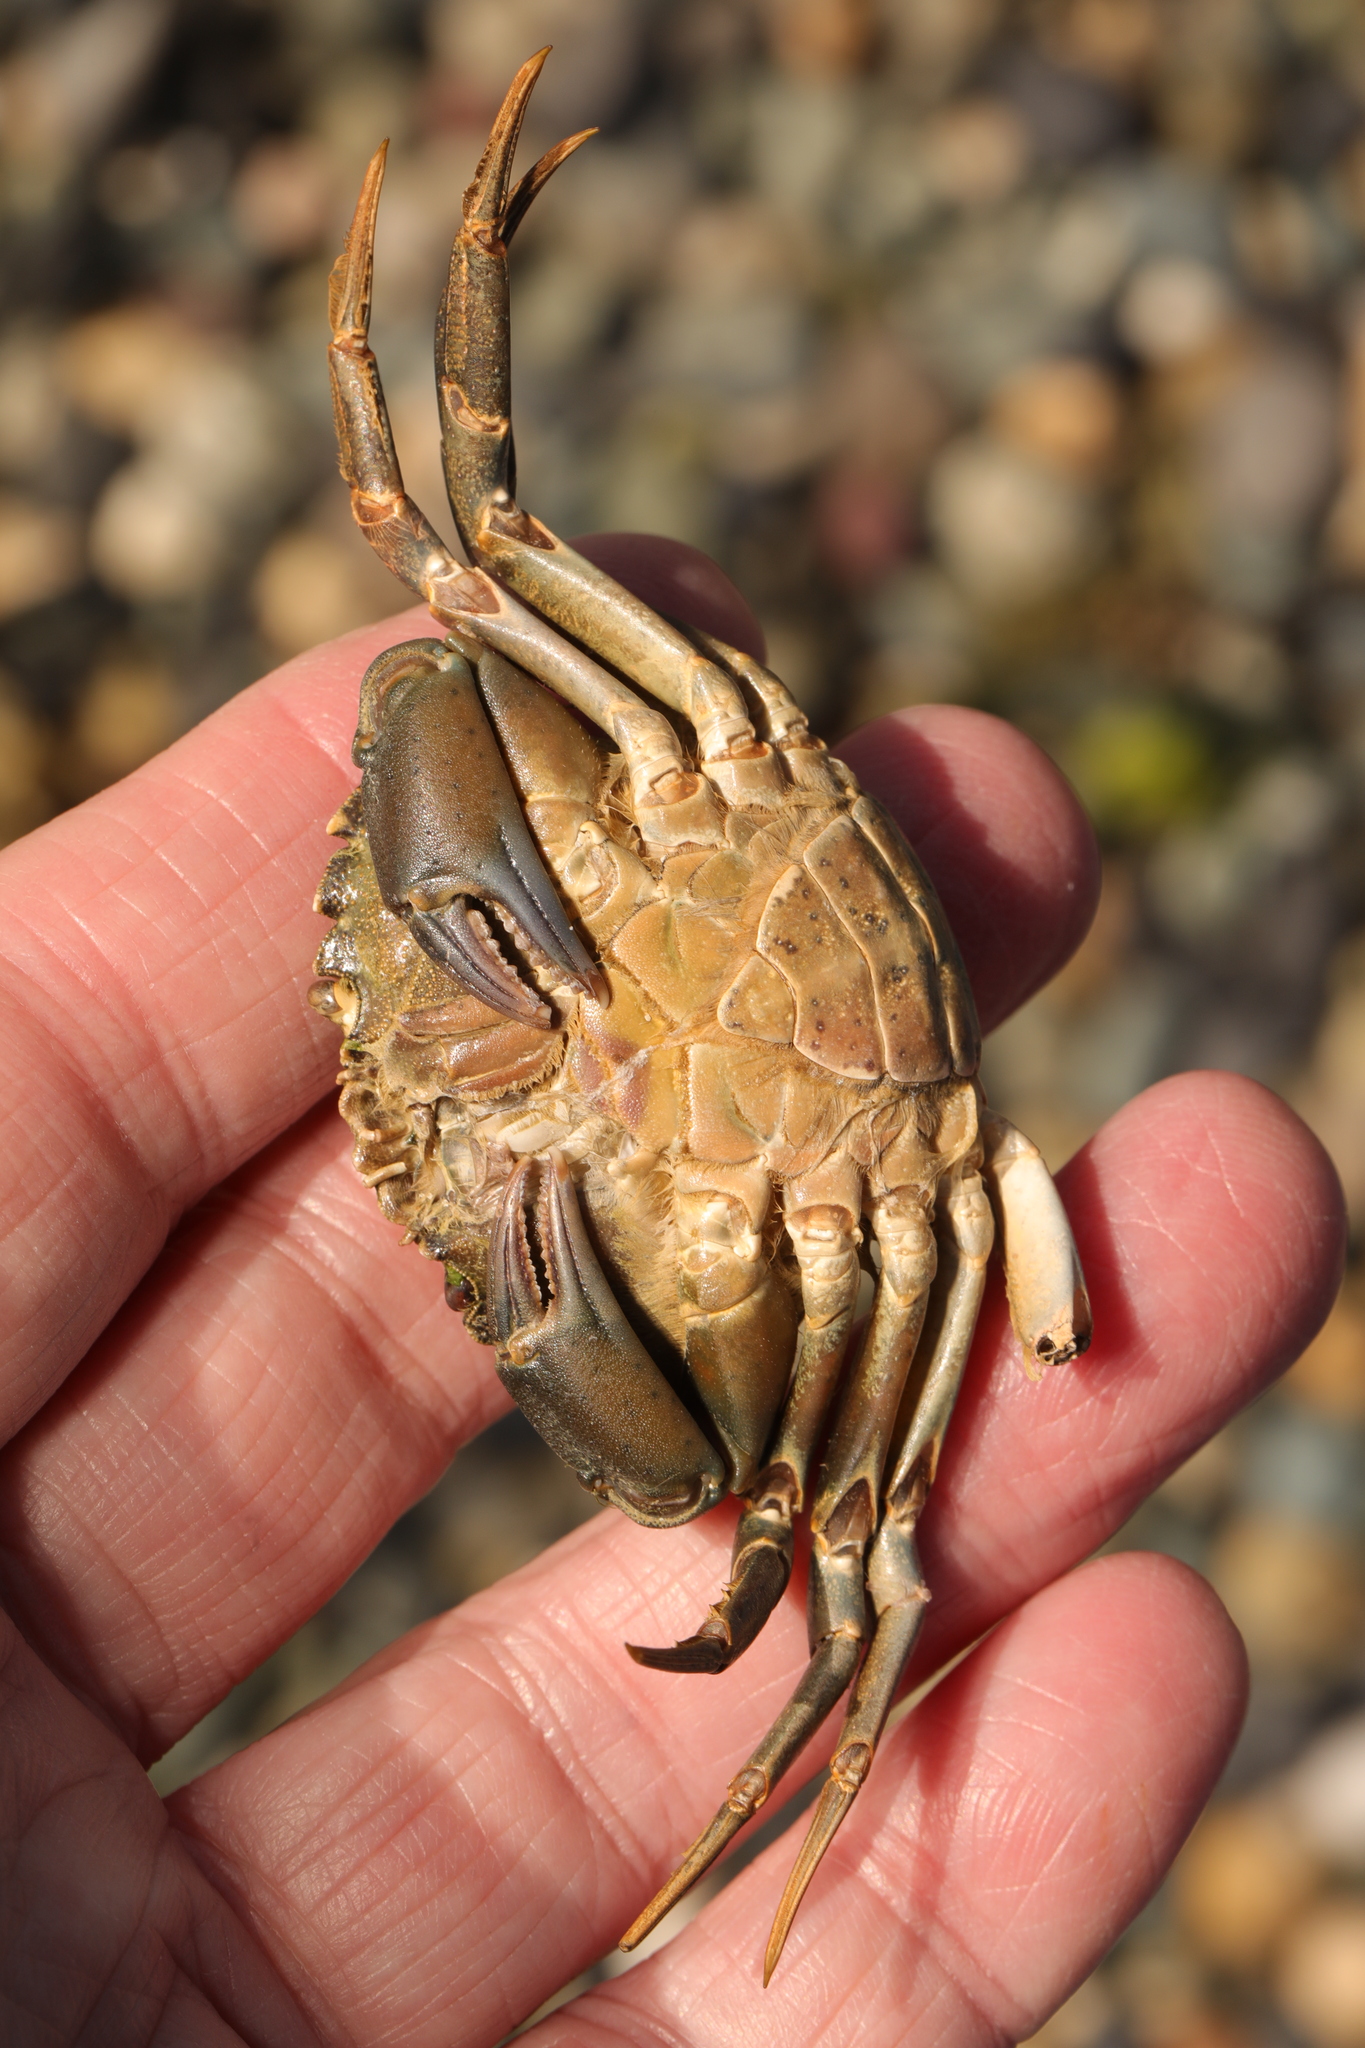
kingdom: Animalia
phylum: Arthropoda
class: Malacostraca
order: Decapoda
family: Carcinidae
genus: Carcinus
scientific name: Carcinus maenas
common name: European green crab
